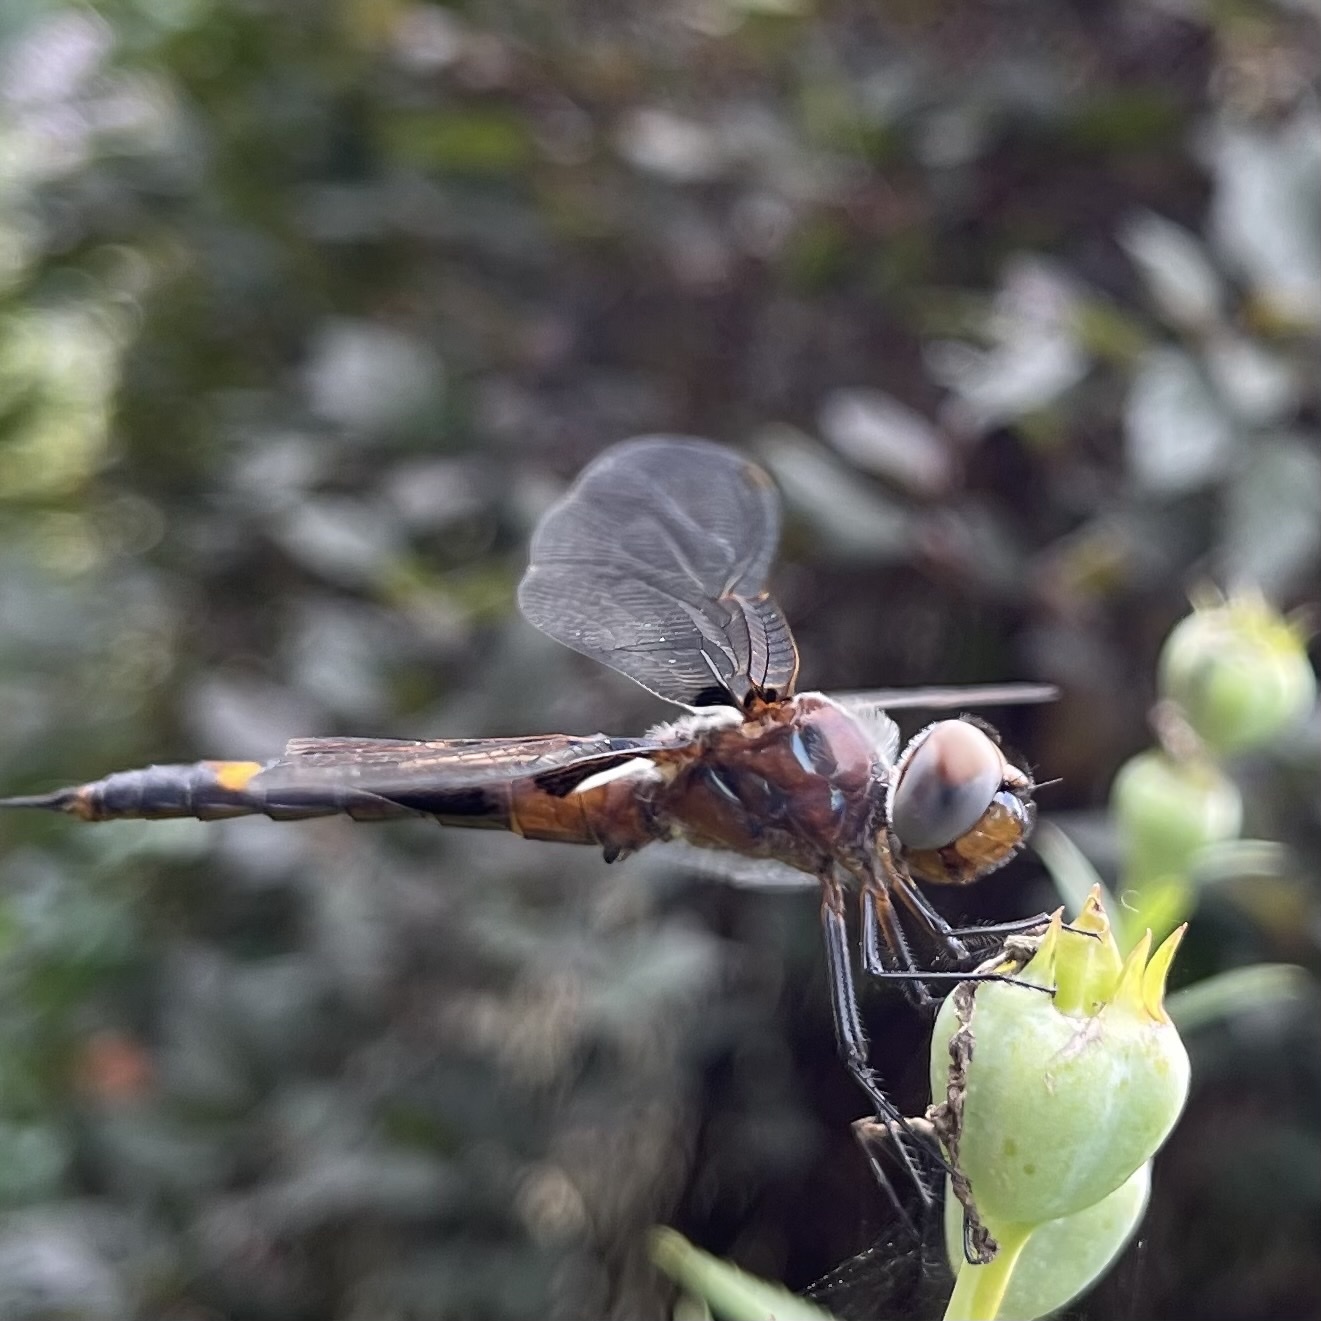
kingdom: Animalia
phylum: Arthropoda
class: Insecta
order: Odonata
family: Libellulidae
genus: Tramea
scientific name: Tramea lacerata
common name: Black saddlebags
